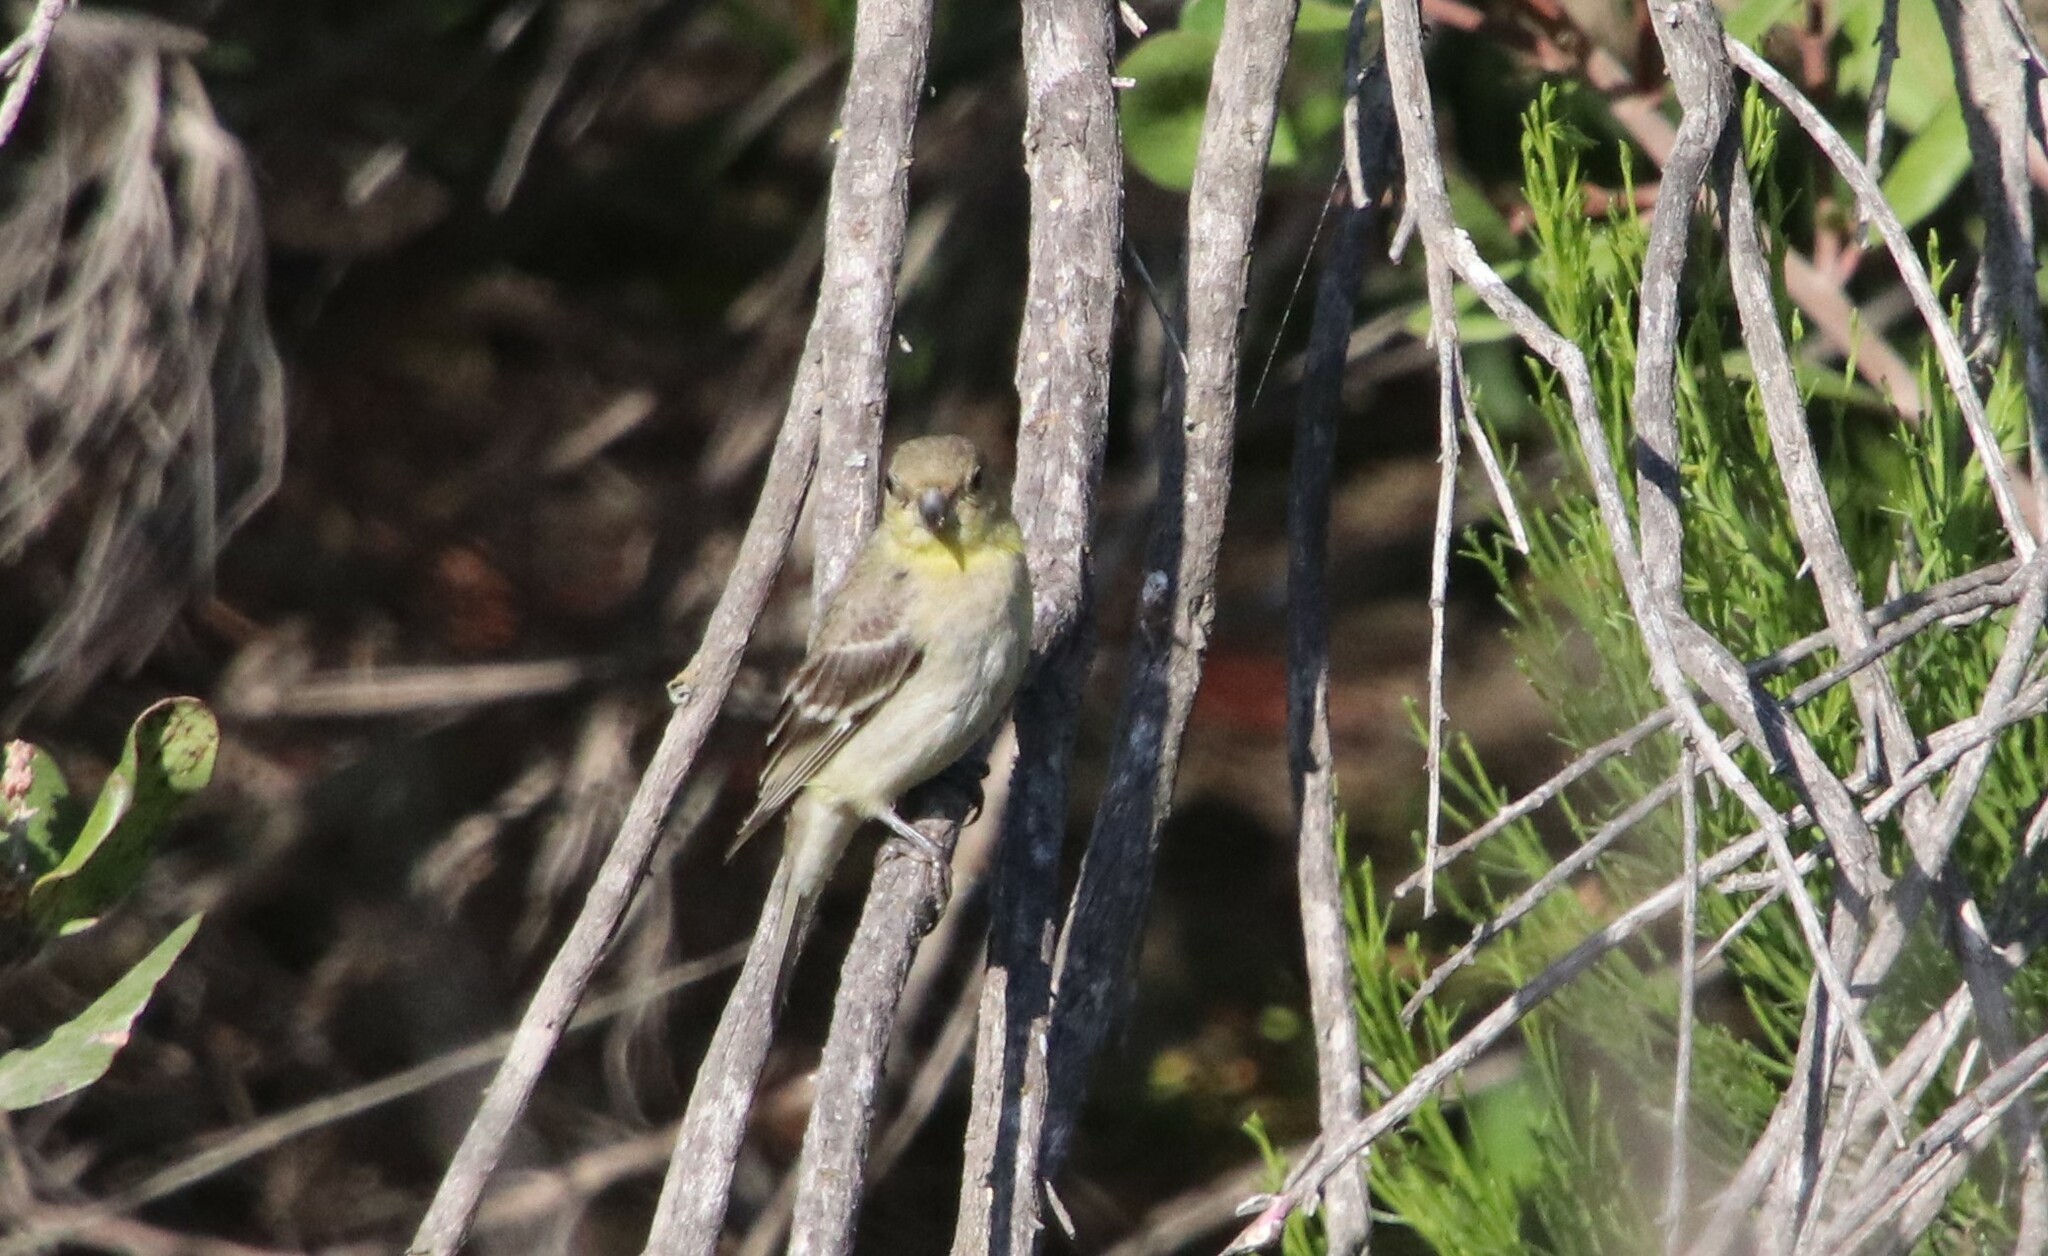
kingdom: Animalia
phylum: Chordata
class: Aves
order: Passeriformes
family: Fringillidae
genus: Spinus
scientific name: Spinus psaltria
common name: Lesser goldfinch
